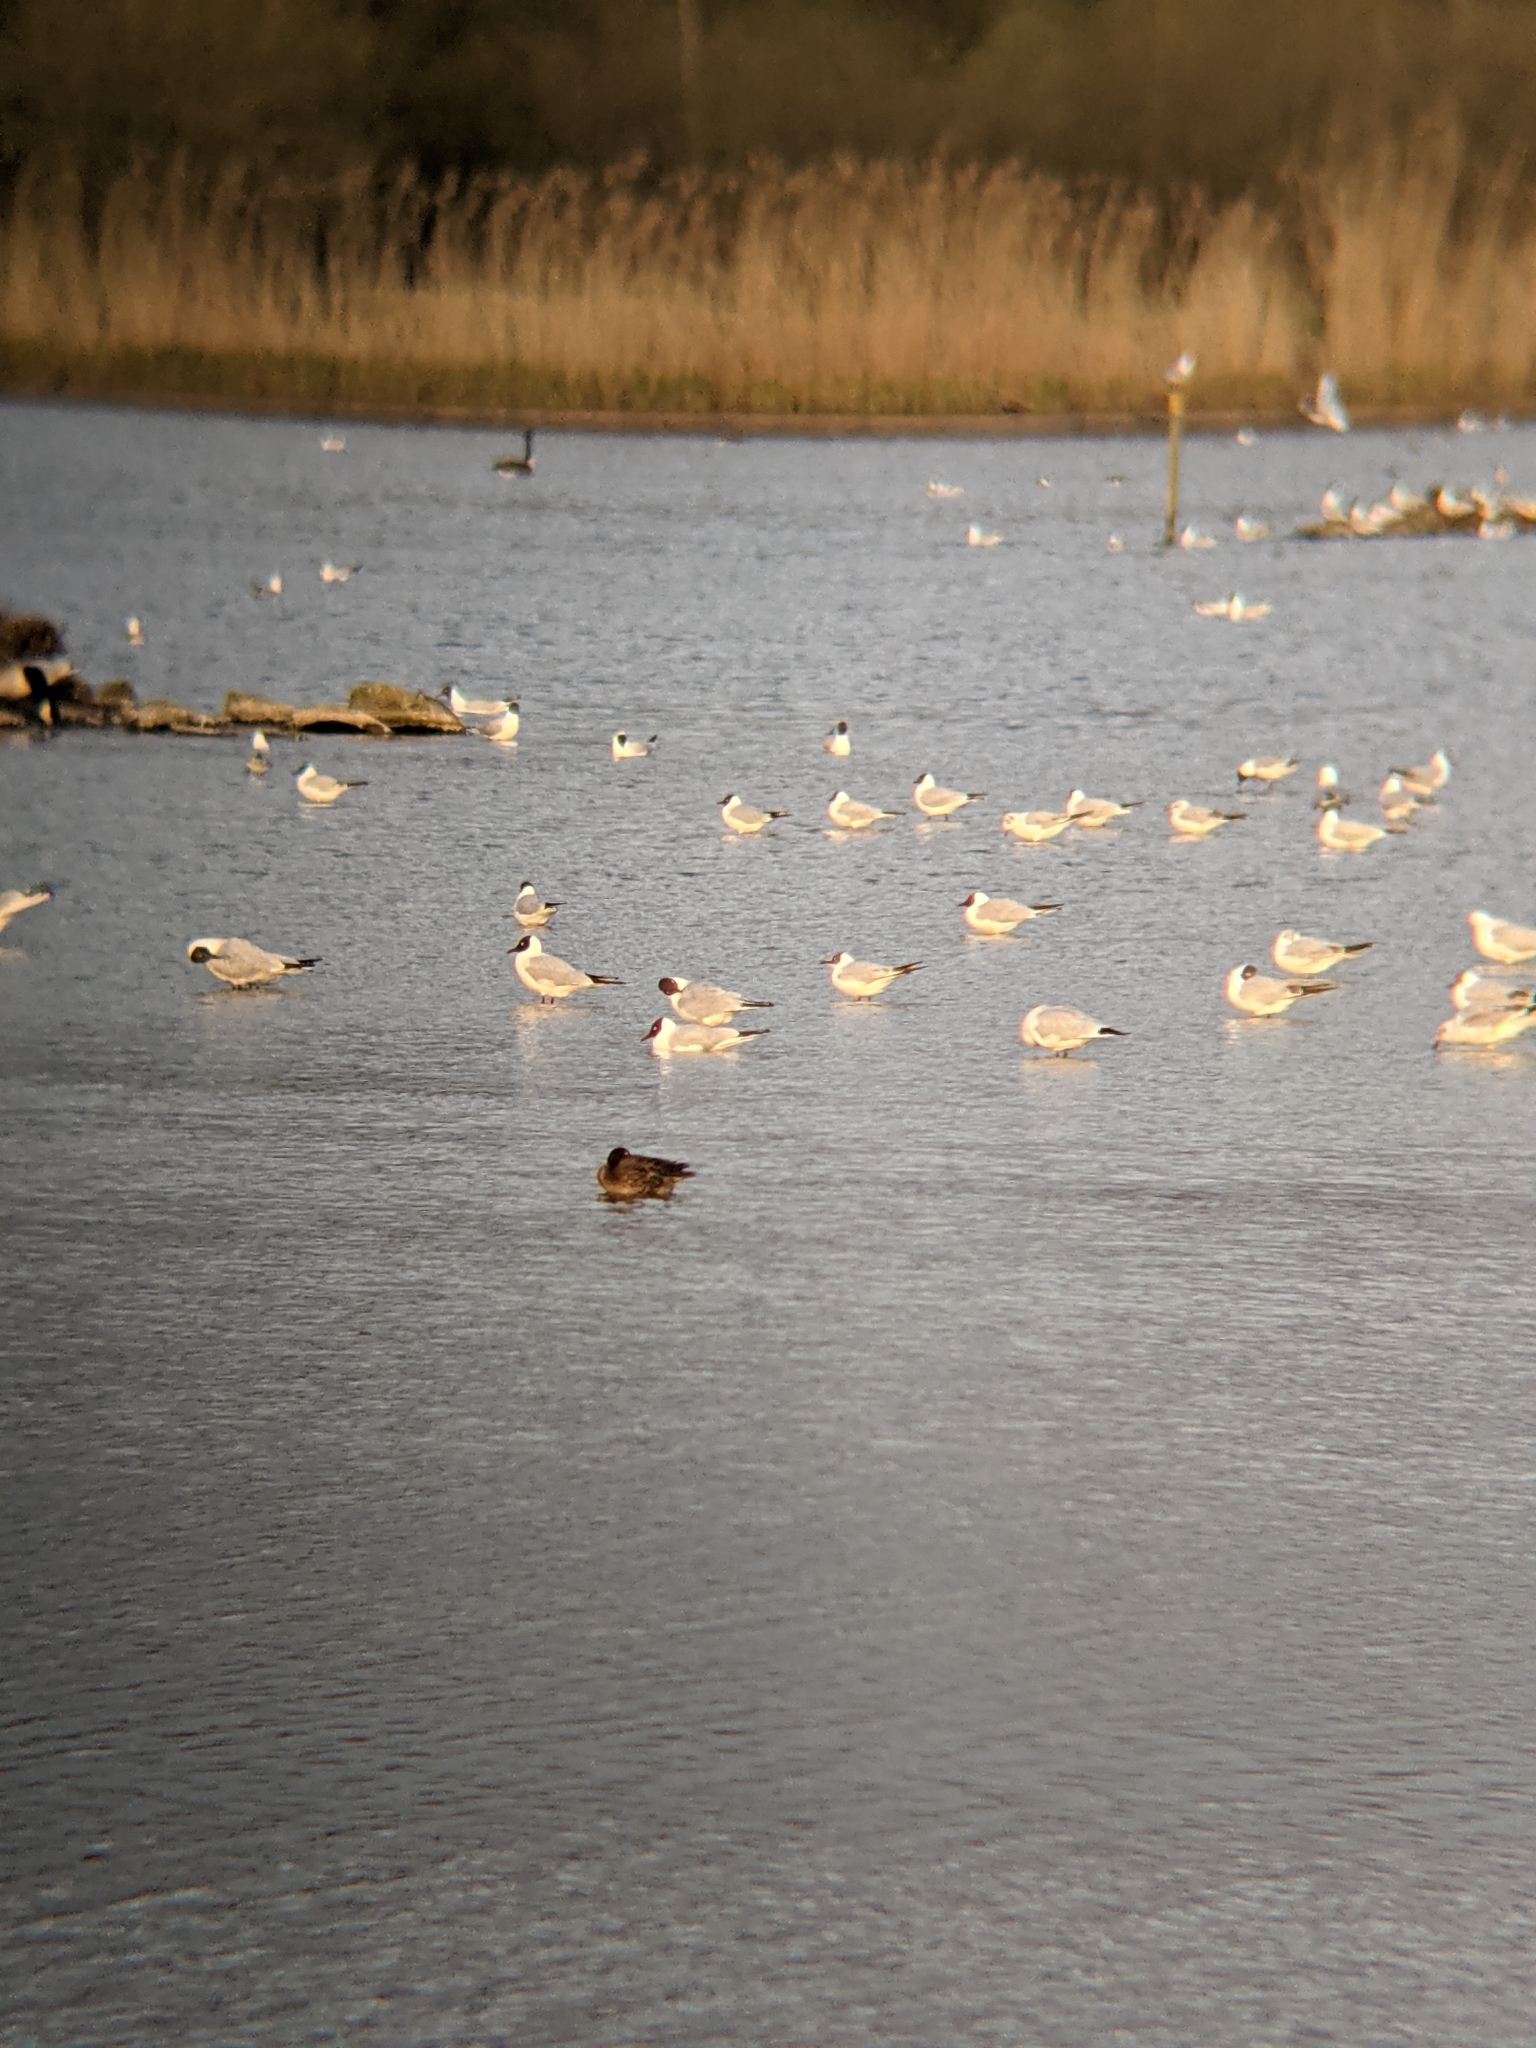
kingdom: Animalia
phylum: Chordata
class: Aves
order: Charadriiformes
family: Laridae
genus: Chroicocephalus
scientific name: Chroicocephalus ridibundus
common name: Black-headed gull
